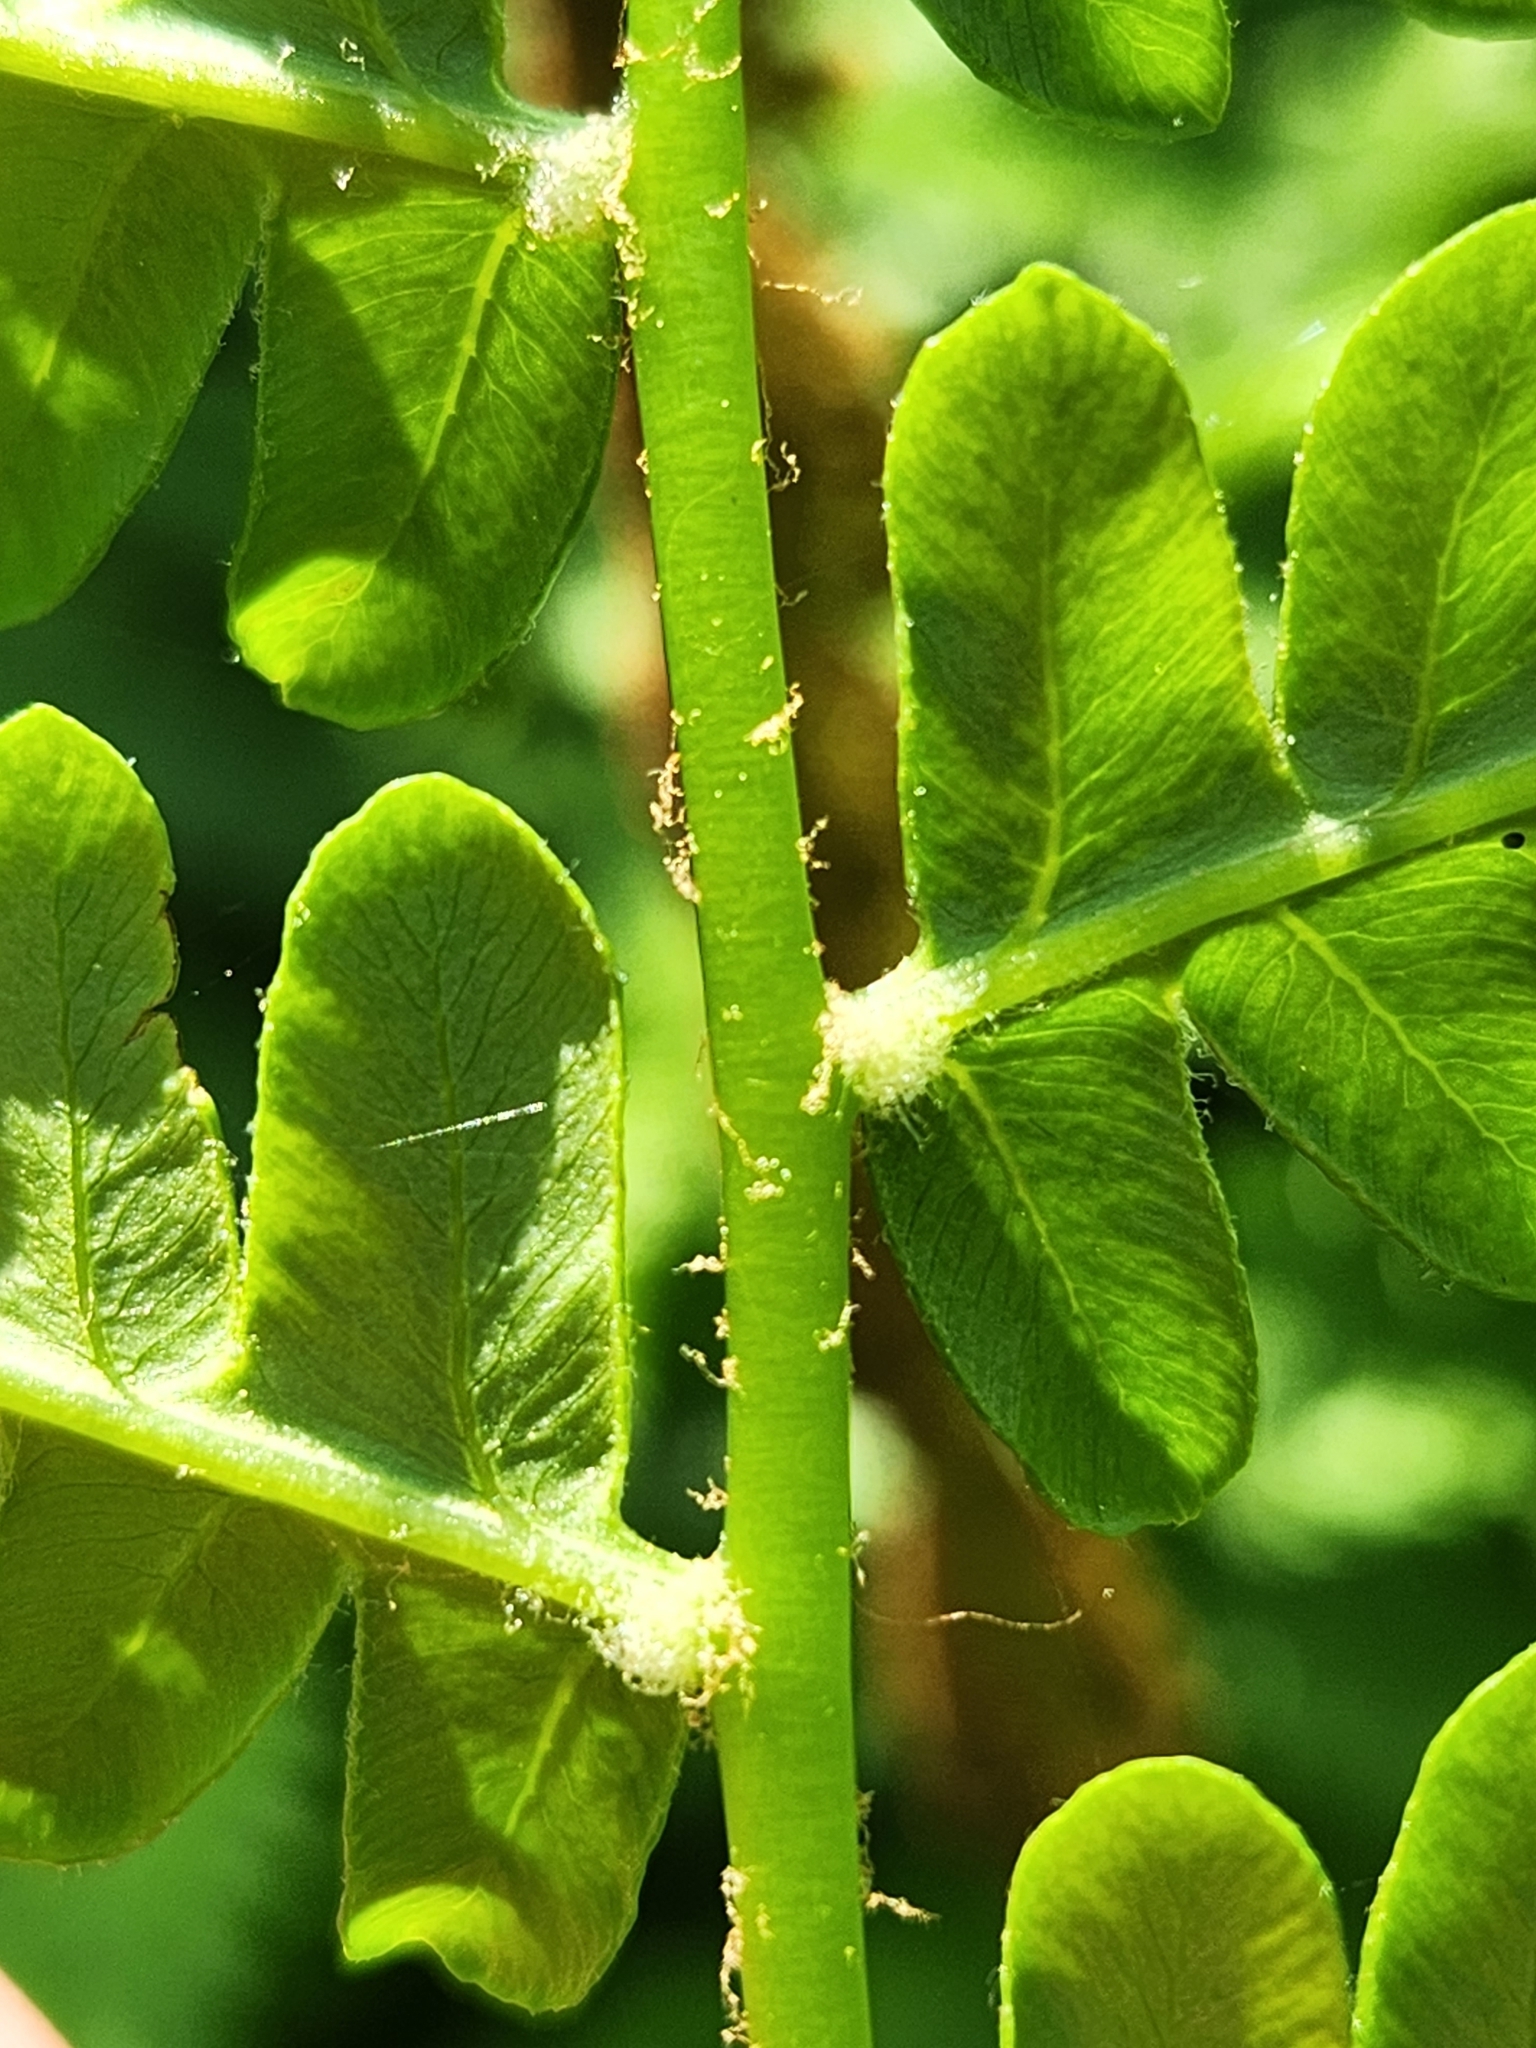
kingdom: Plantae
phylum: Tracheophyta
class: Polypodiopsida
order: Osmundales
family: Osmundaceae
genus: Osmundastrum
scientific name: Osmundastrum cinnamomeum
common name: Cinnamon fern
